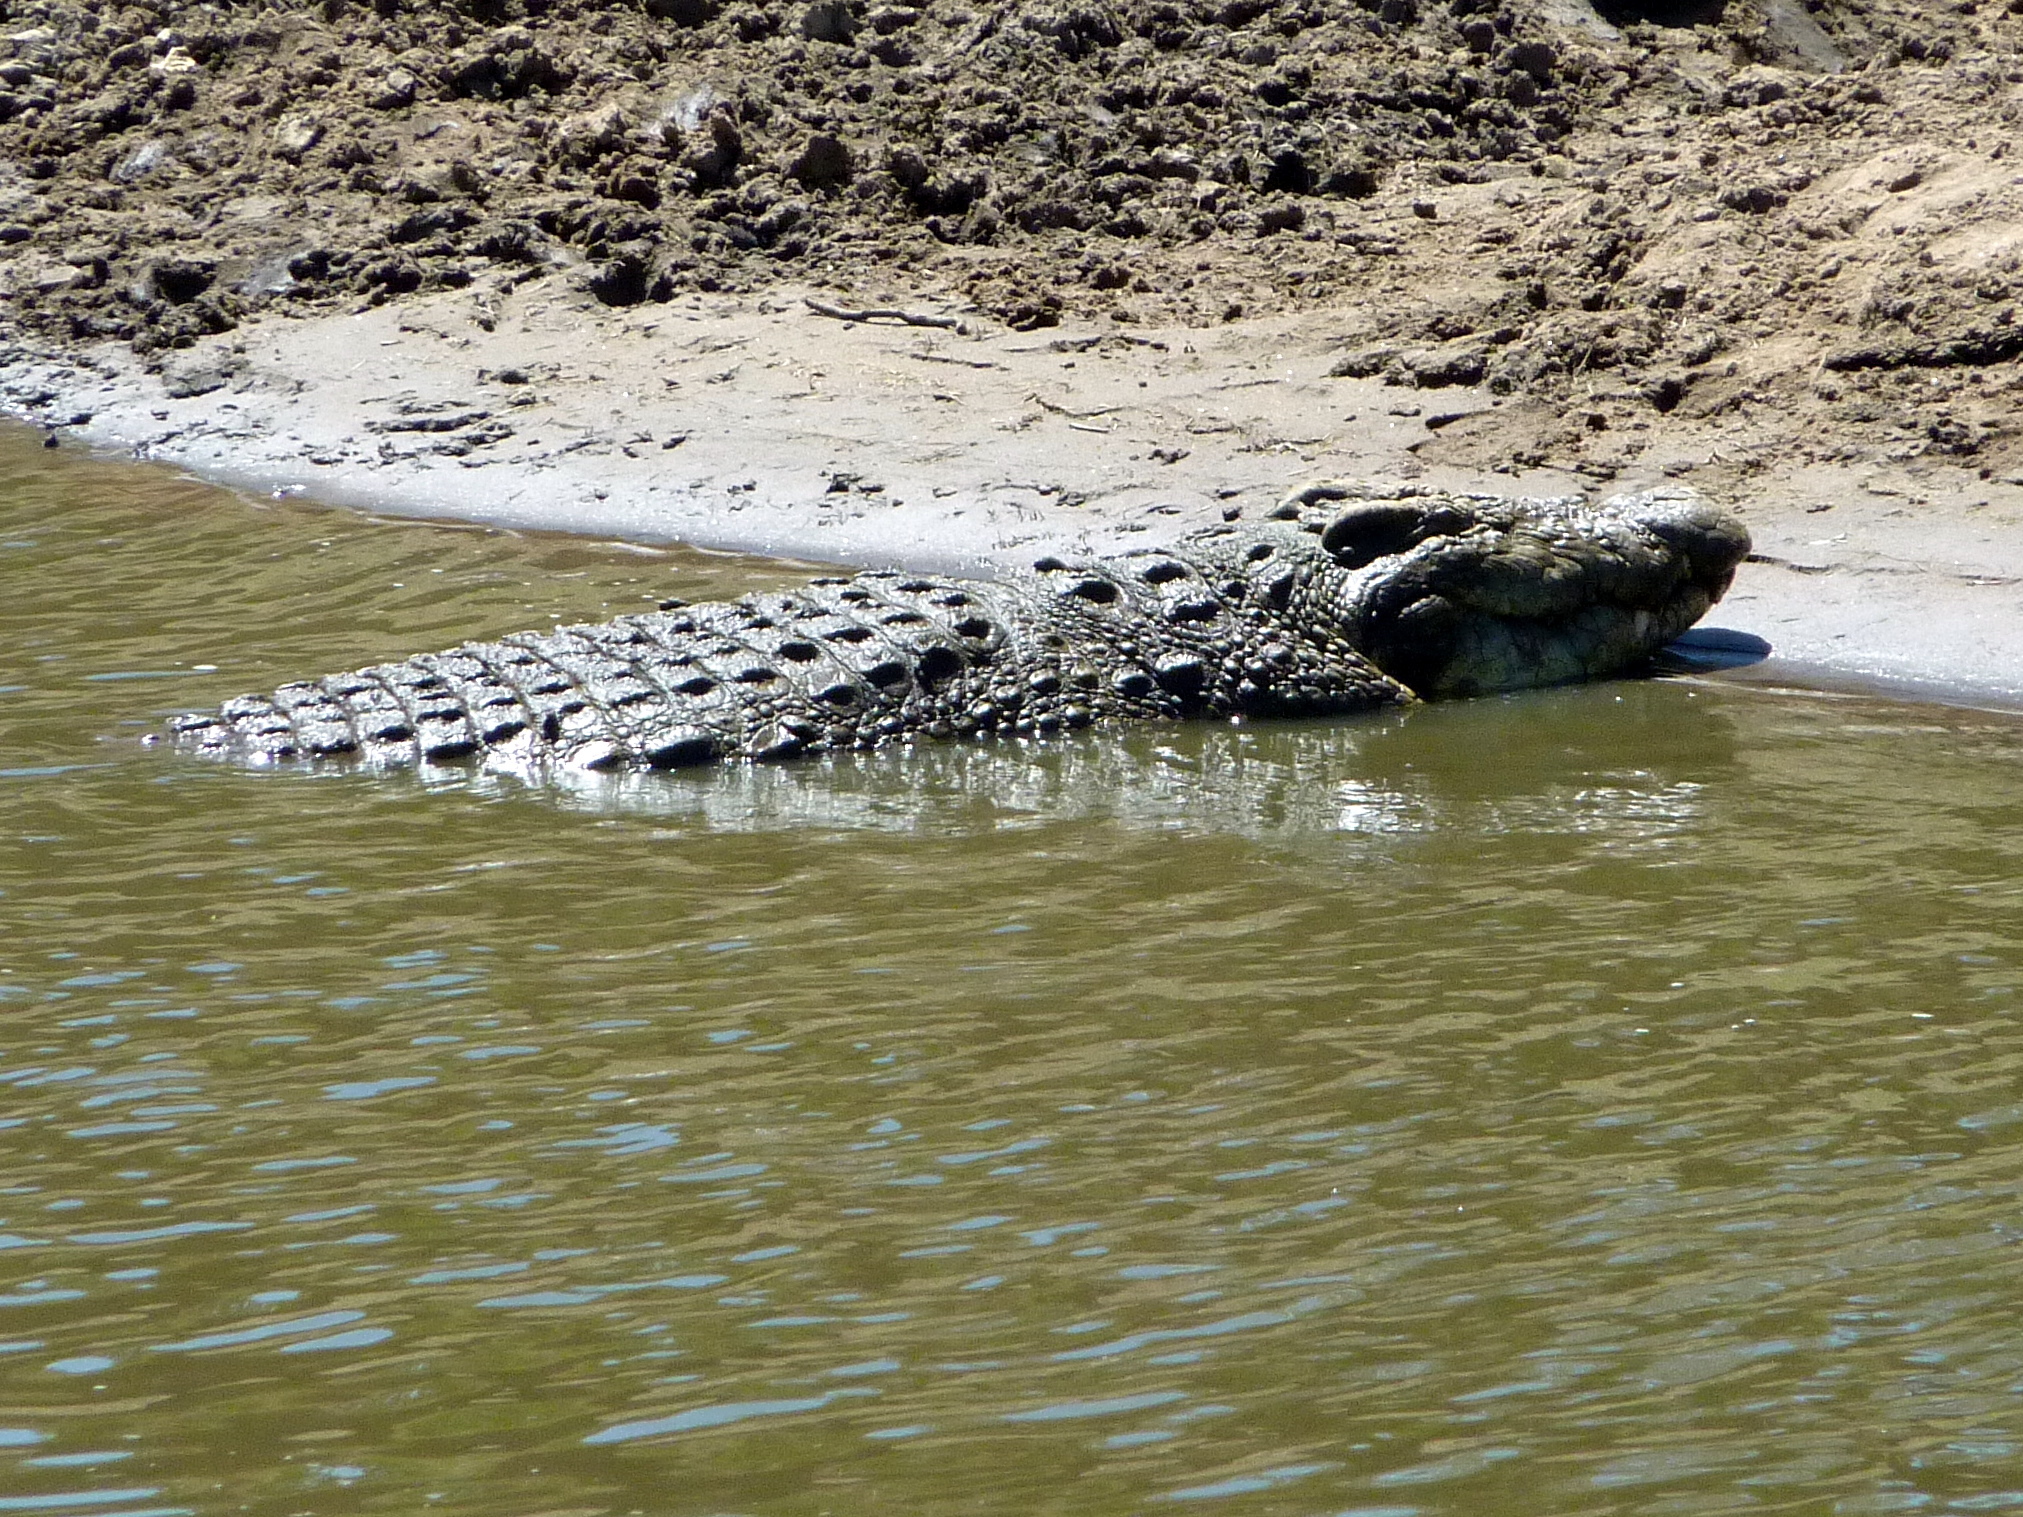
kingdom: Animalia
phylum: Chordata
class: Crocodylia
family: Crocodylidae
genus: Crocodylus
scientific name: Crocodylus niloticus
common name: Nile crocodile
